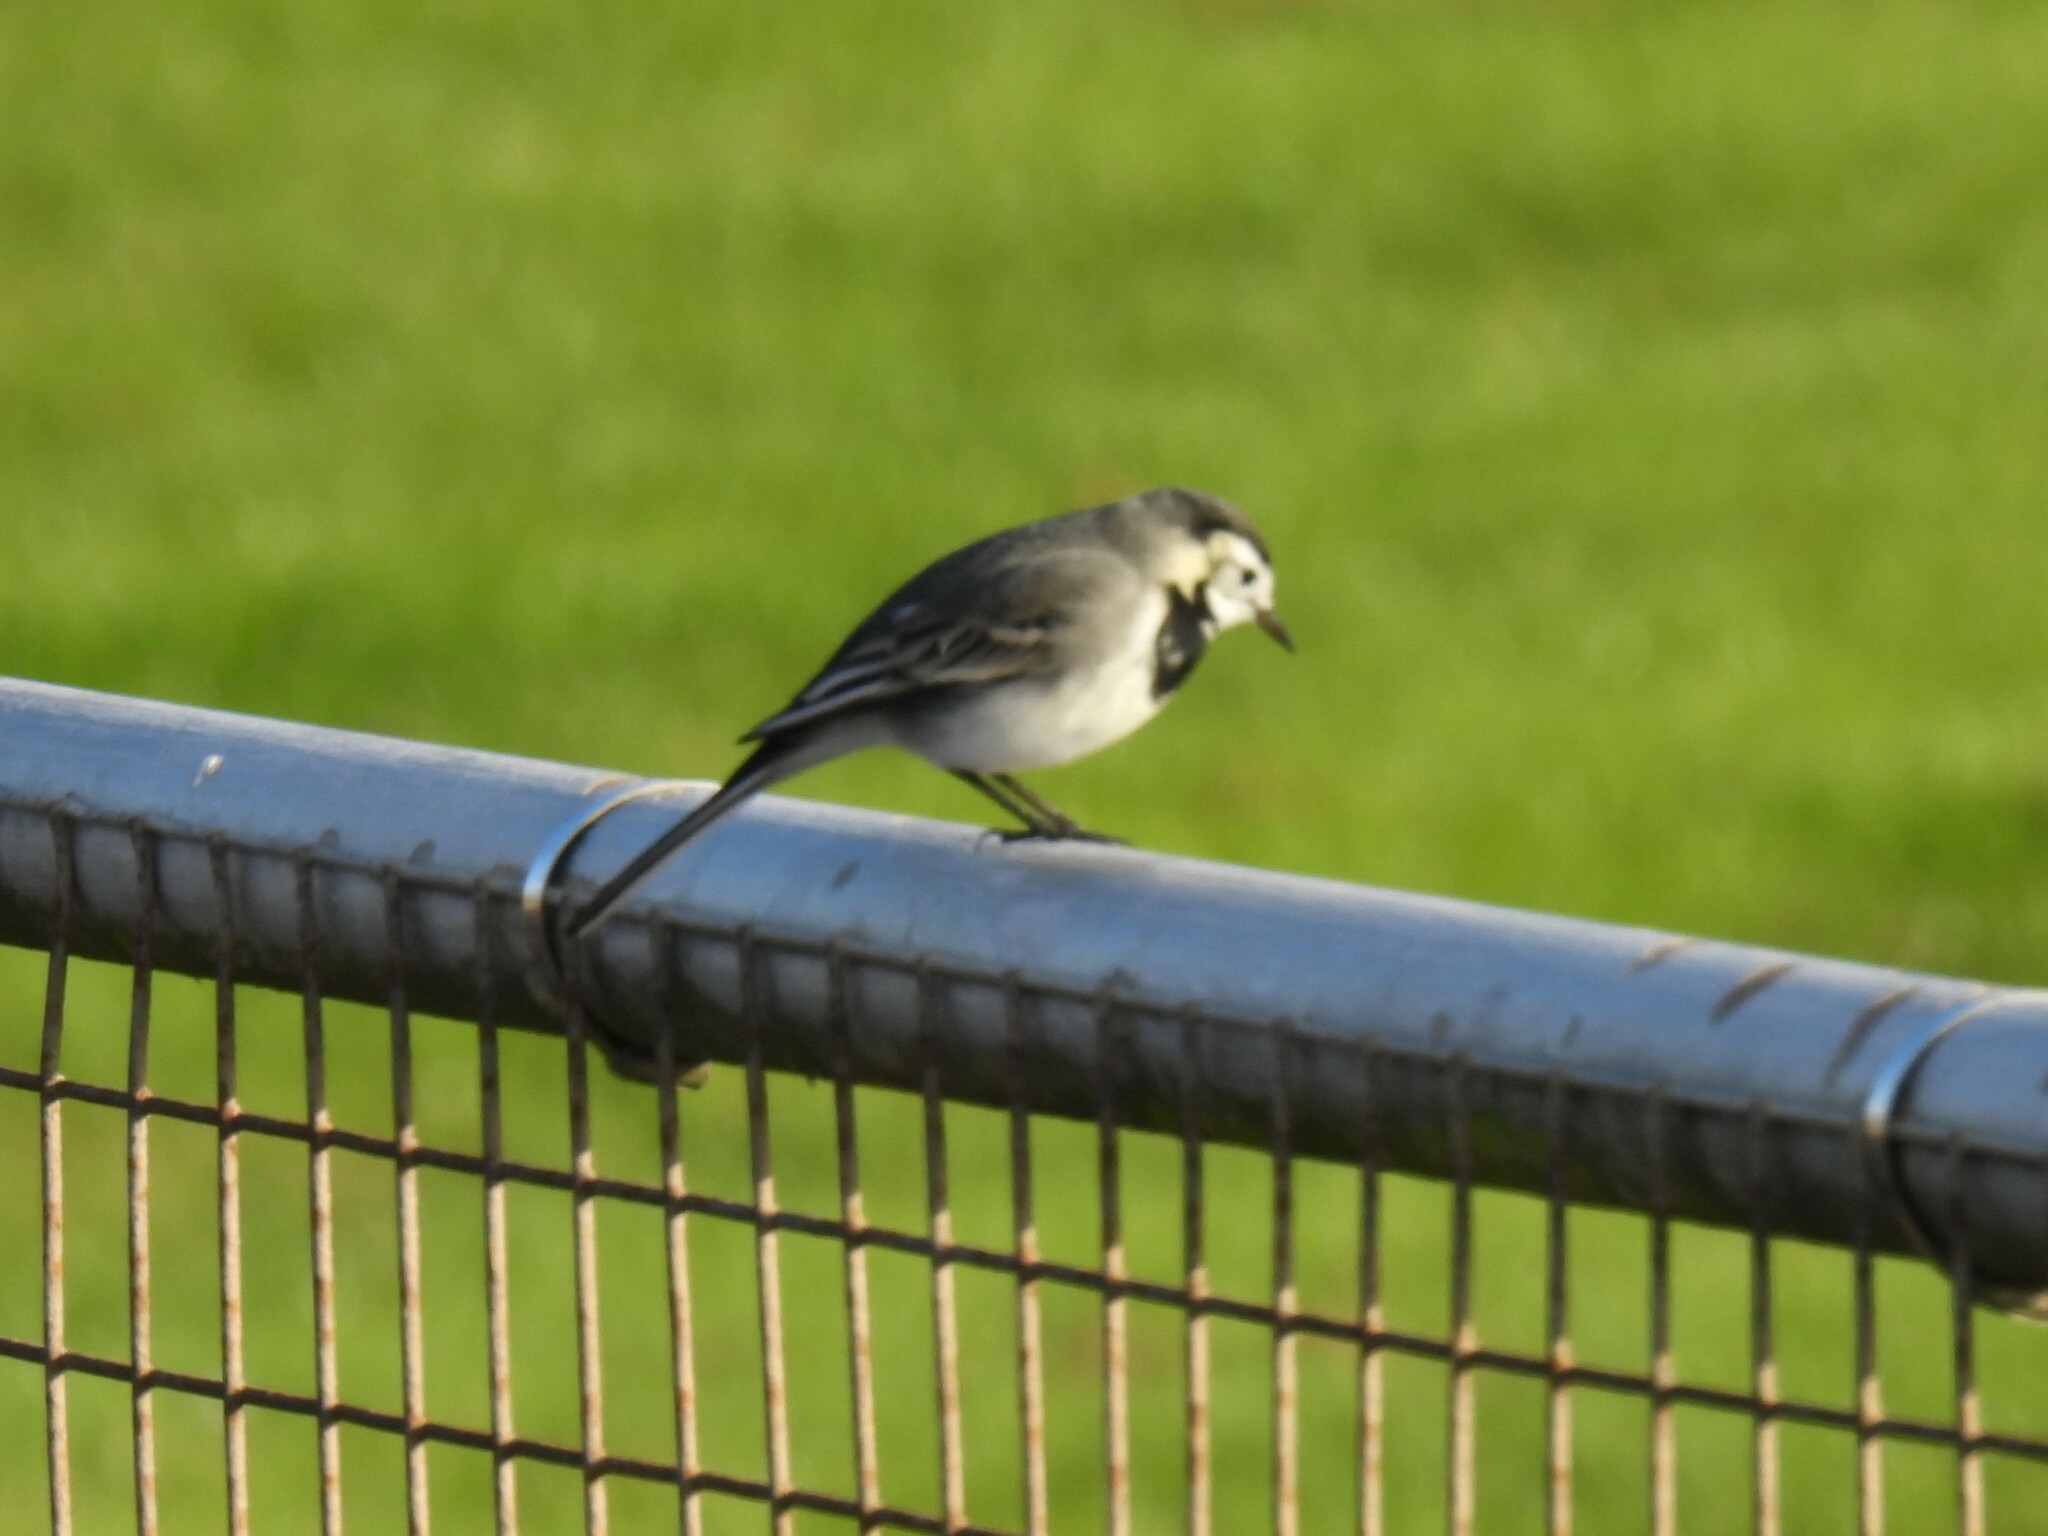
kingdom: Animalia
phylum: Chordata
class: Aves
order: Passeriformes
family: Motacillidae
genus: Motacilla
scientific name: Motacilla alba
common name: White wagtail
